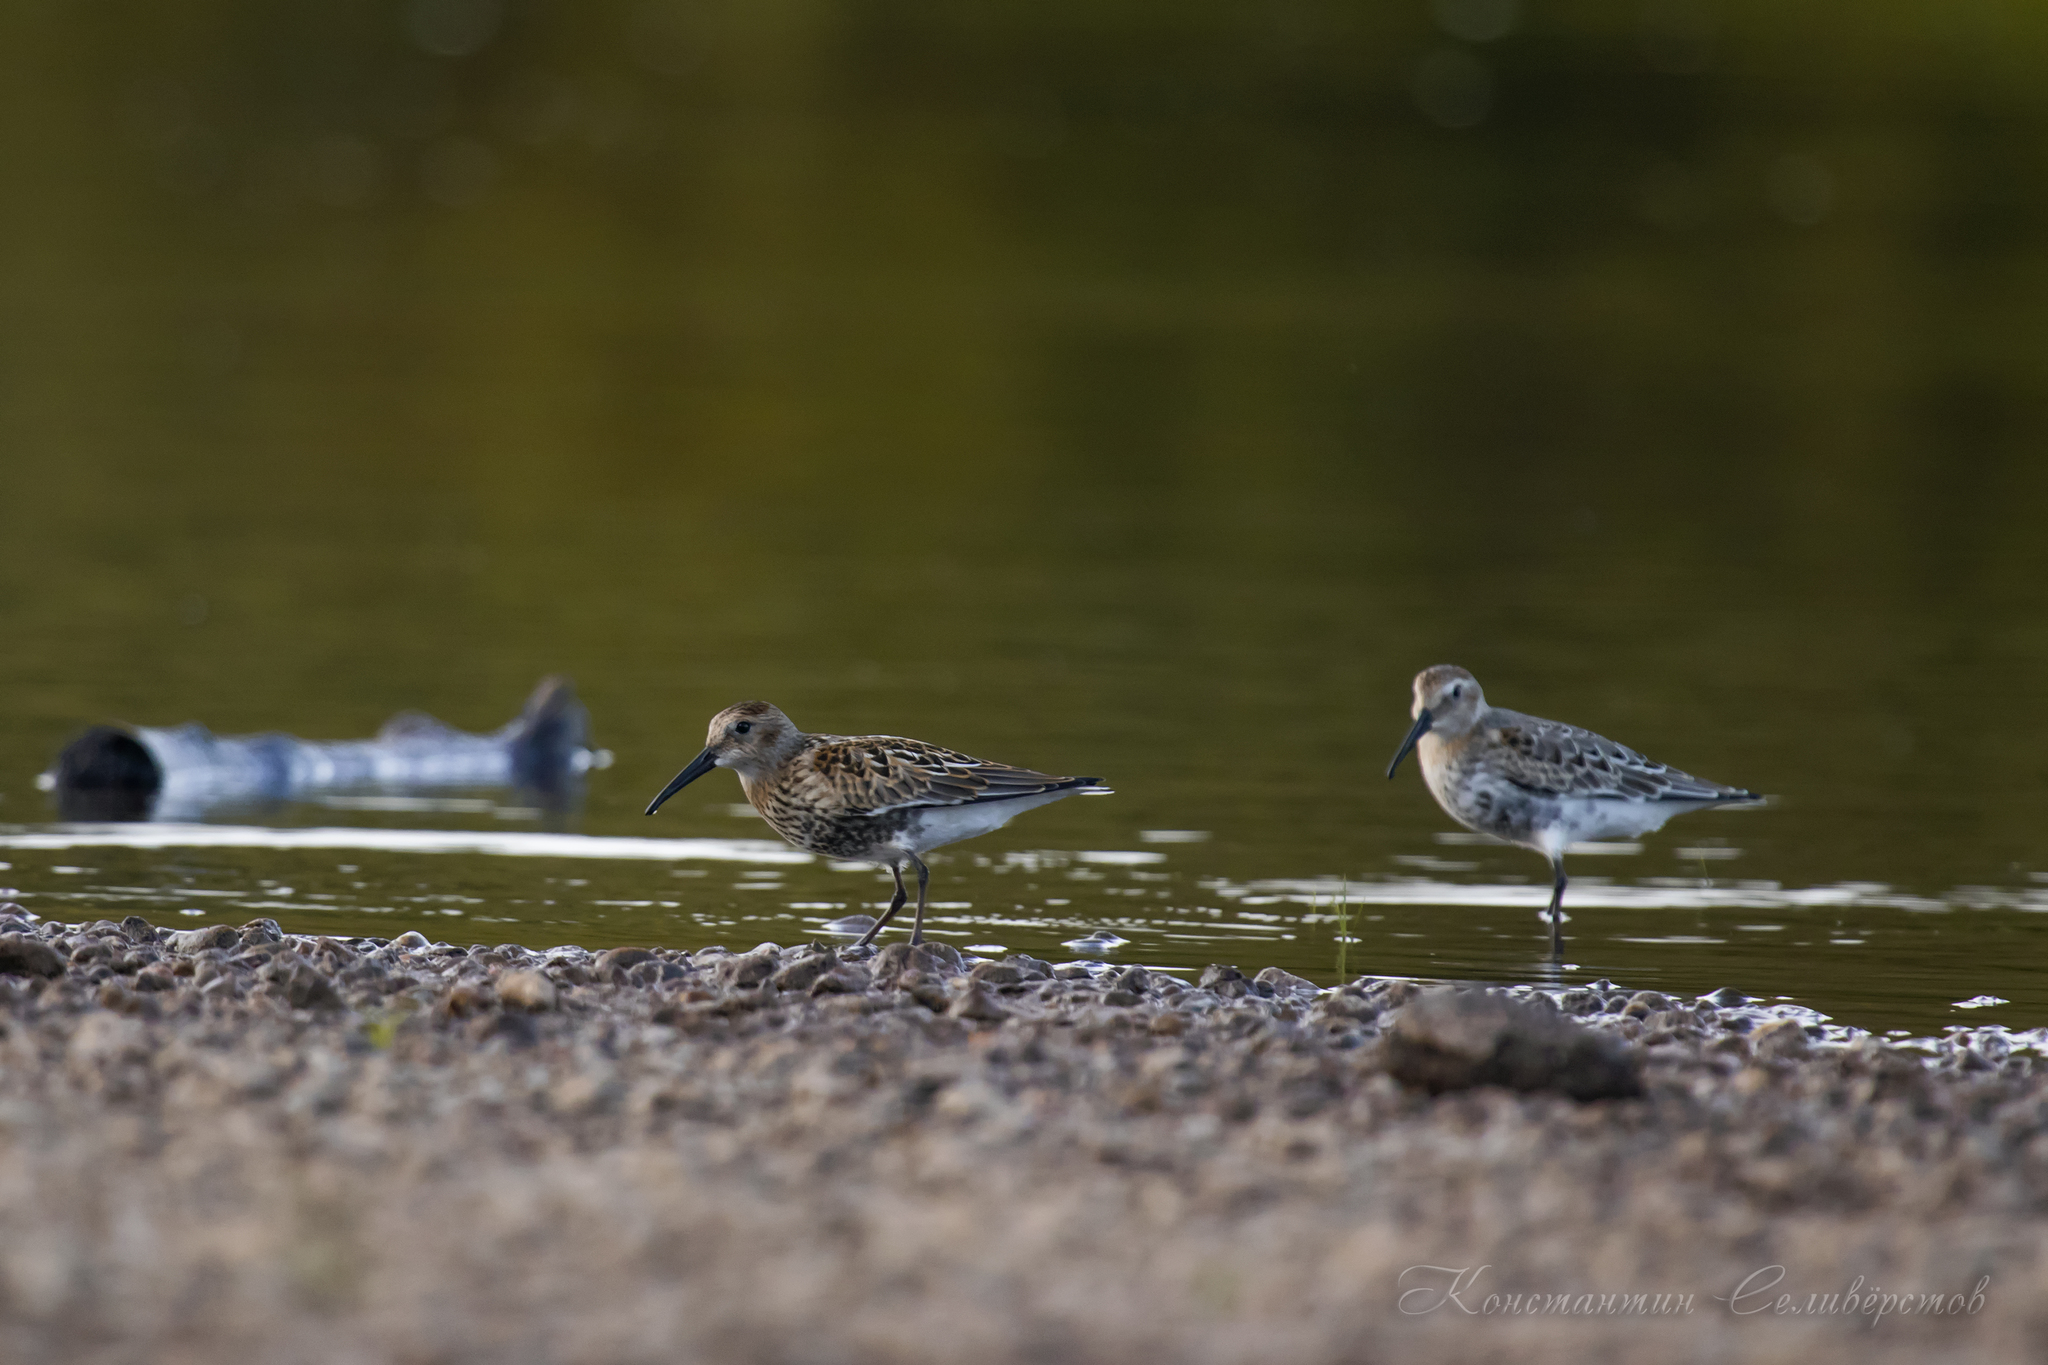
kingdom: Animalia
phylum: Chordata
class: Aves
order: Charadriiformes
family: Scolopacidae
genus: Calidris
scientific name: Calidris alpina
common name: Dunlin
